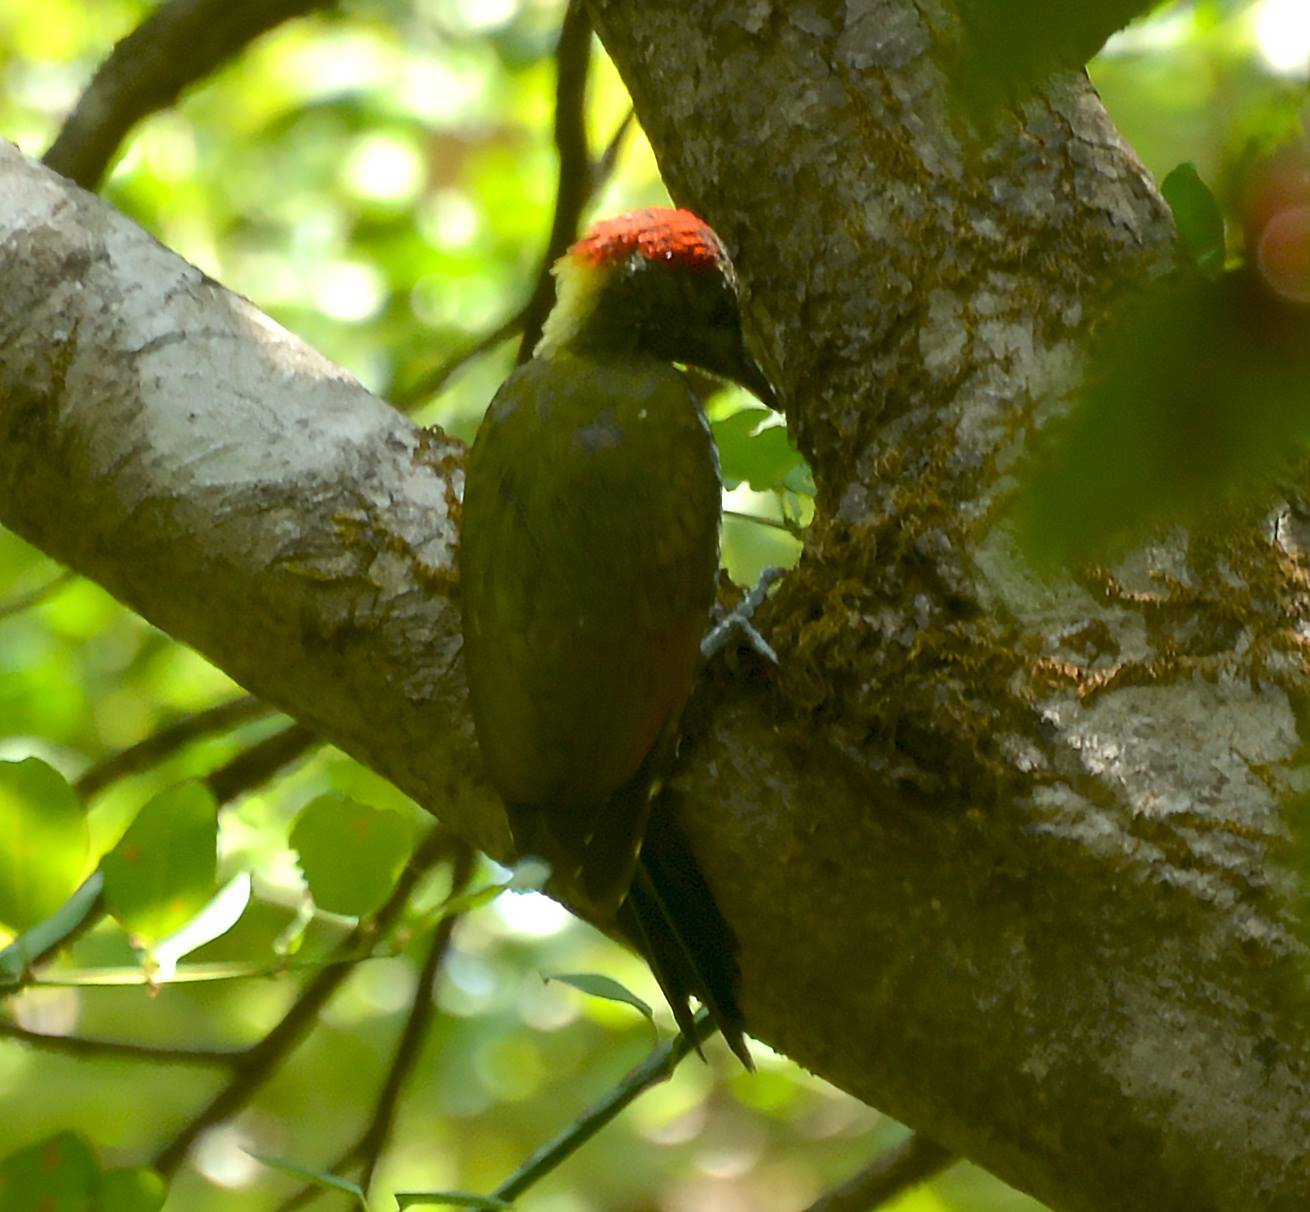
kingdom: Animalia
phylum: Chordata
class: Aves
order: Piciformes
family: Picidae
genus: Picus
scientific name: Picus chlorolophus
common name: Lesser yellownape
